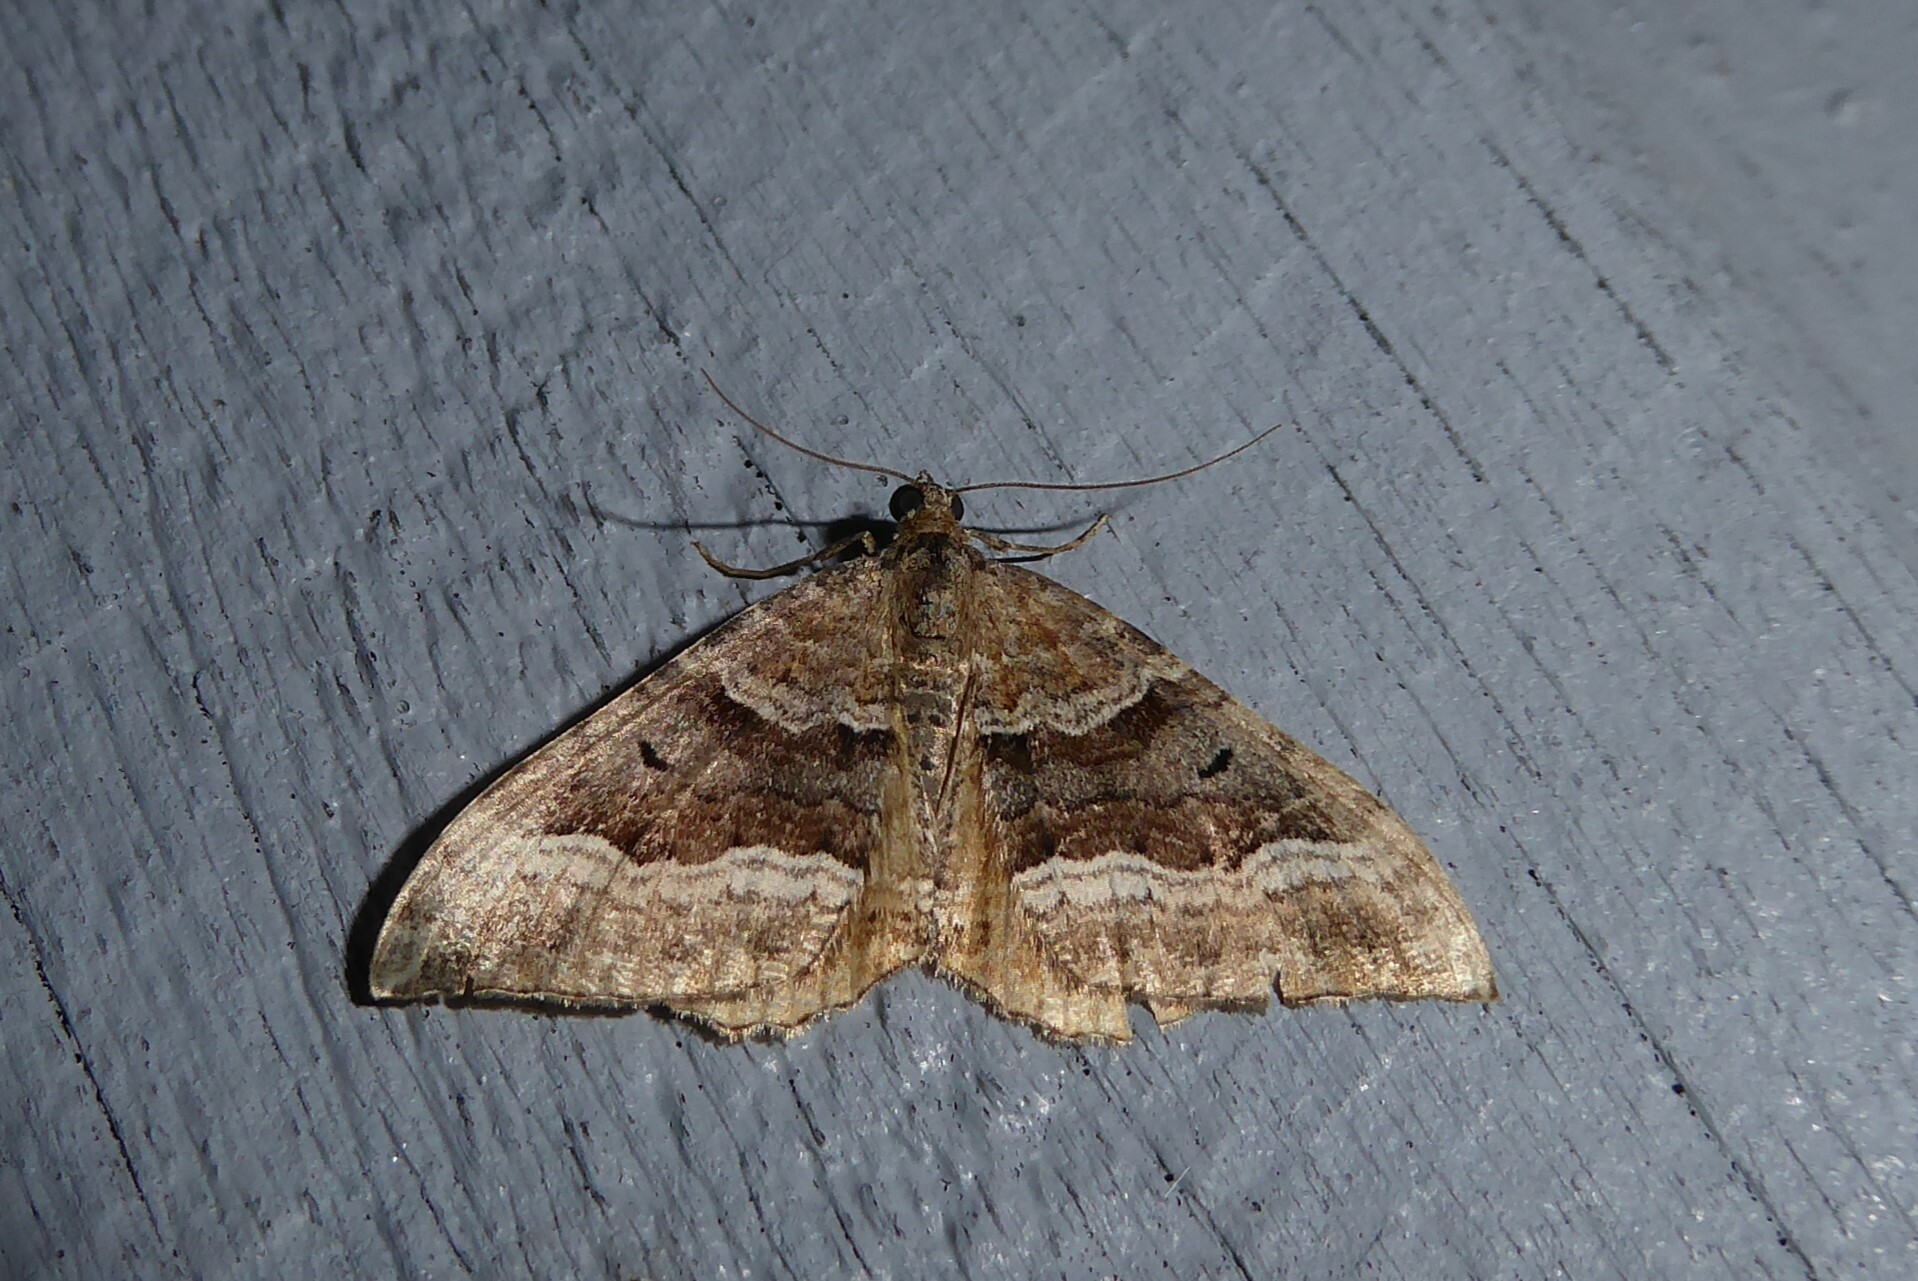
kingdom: Animalia
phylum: Arthropoda
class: Insecta
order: Lepidoptera
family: Geometridae
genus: Hydriomena
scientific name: Hydriomena deltoidata
